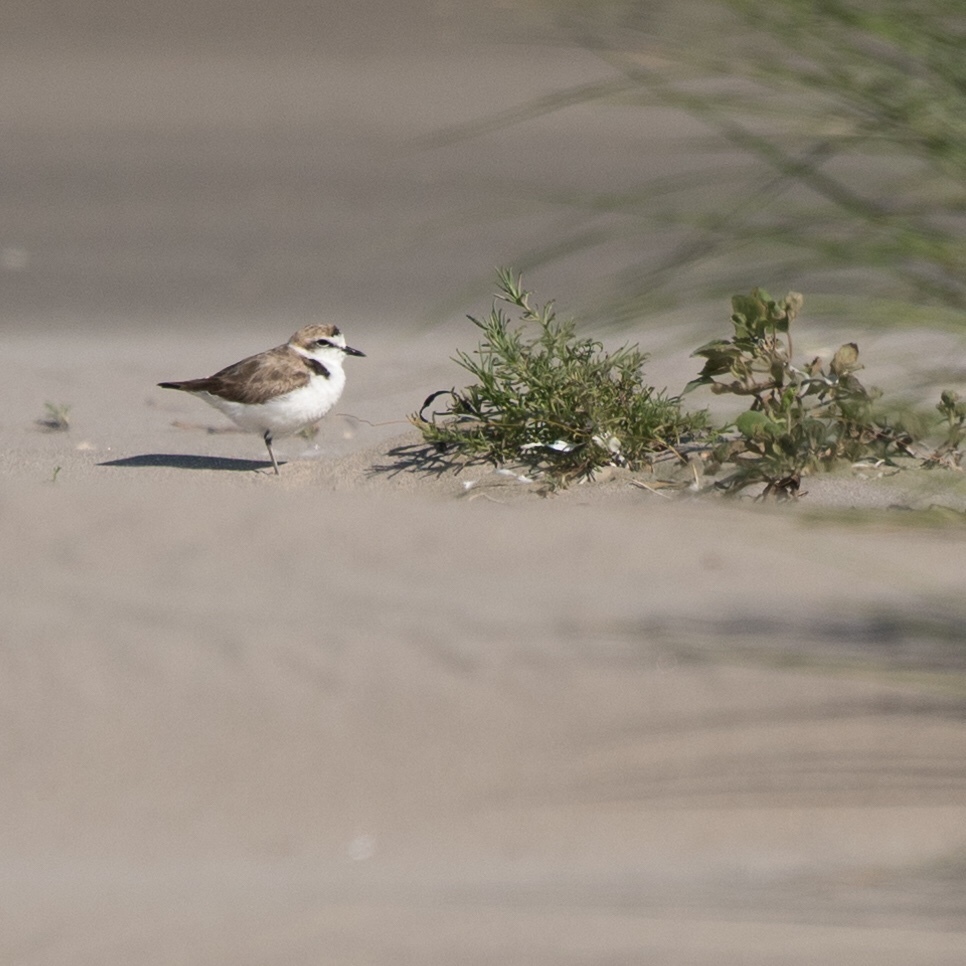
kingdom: Animalia
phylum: Chordata
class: Aves
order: Charadriiformes
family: Charadriidae
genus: Charadrius
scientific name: Charadrius alexandrinus
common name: Kentish plover
